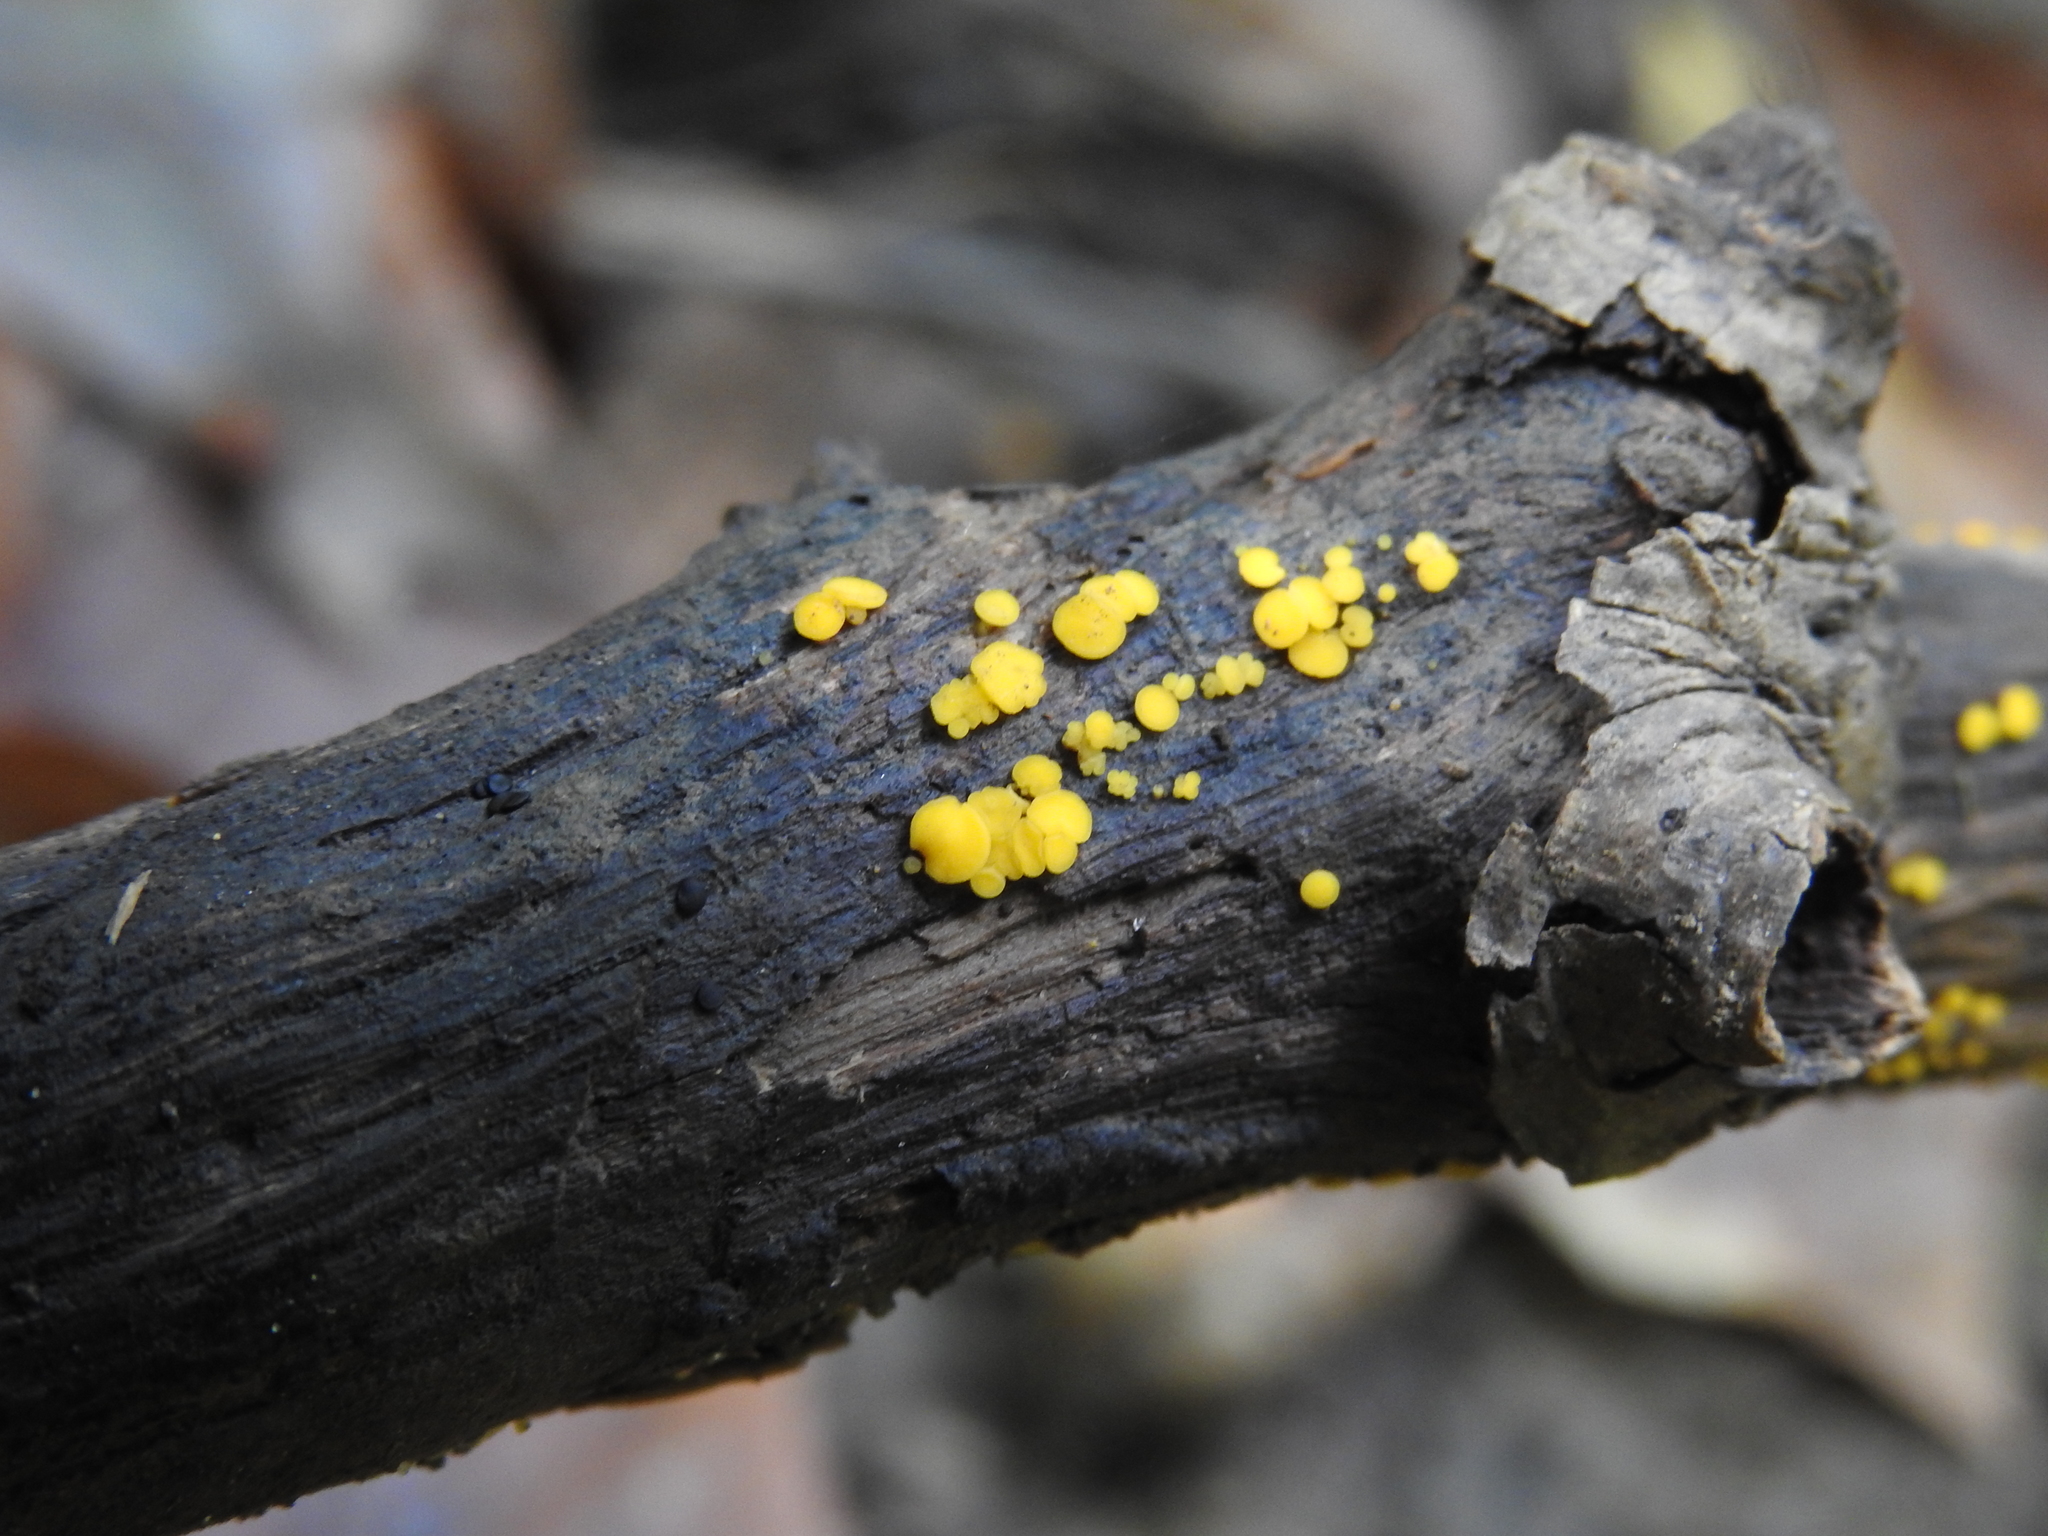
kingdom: Fungi
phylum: Ascomycota
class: Leotiomycetes
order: Helotiales
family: Pezizellaceae
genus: Calycina
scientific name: Calycina citrina
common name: Yellow fairy cups
